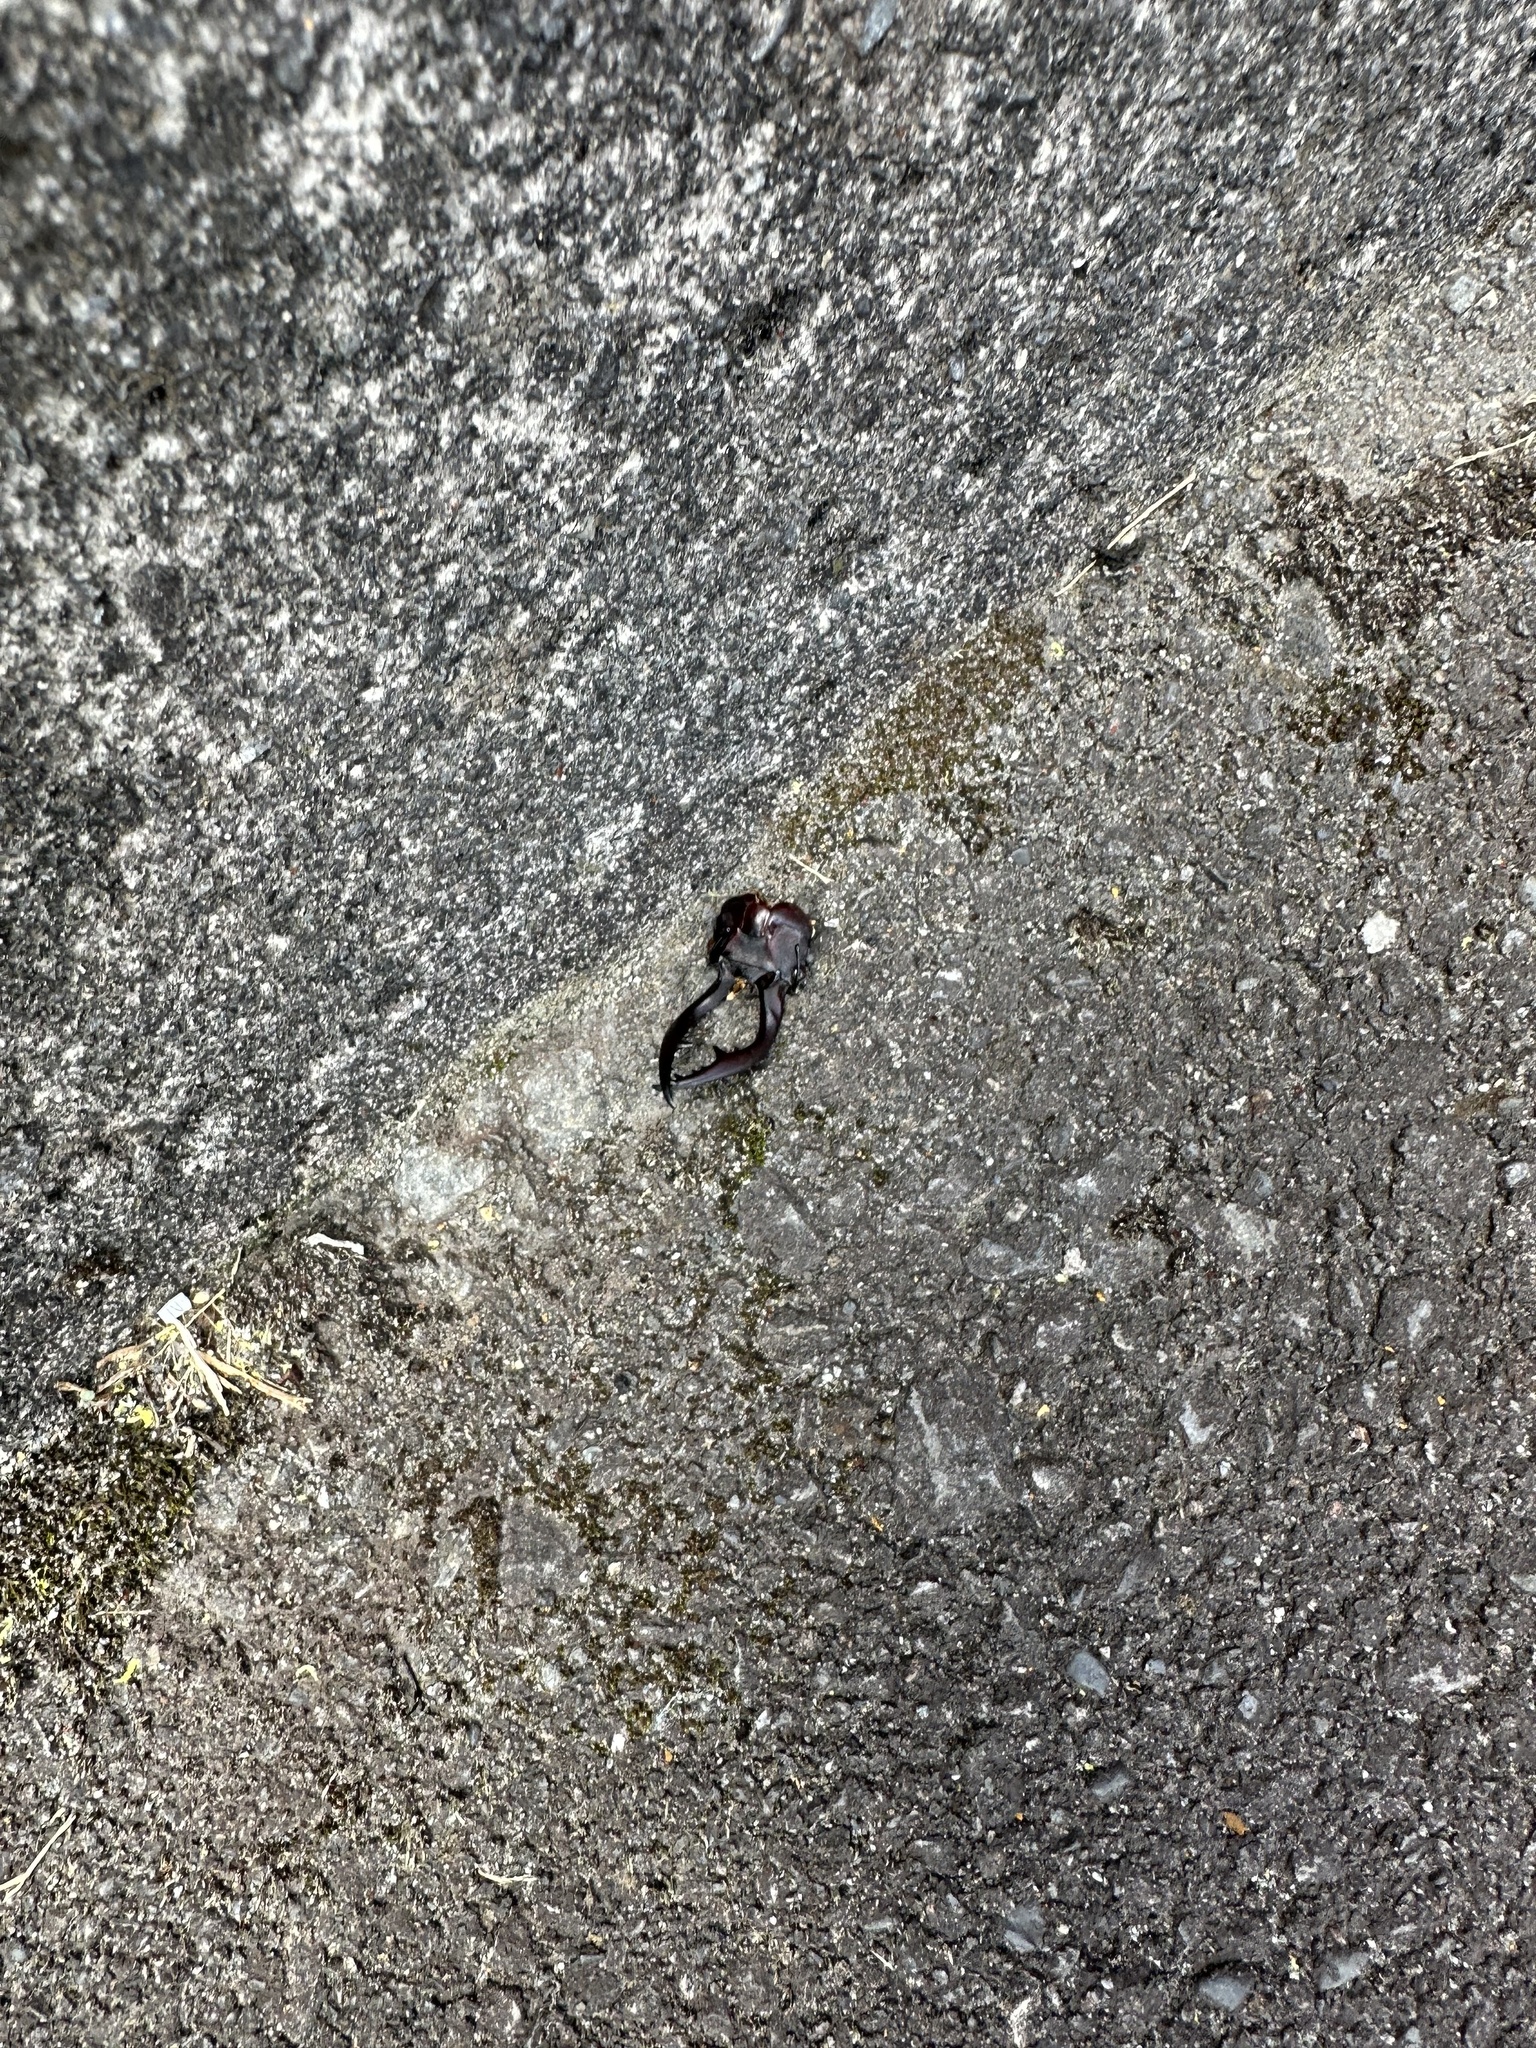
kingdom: Animalia
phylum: Arthropoda
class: Insecta
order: Coleoptera
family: Lucanidae
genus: Prosopocoilus
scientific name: Prosopocoilus inclinatus
